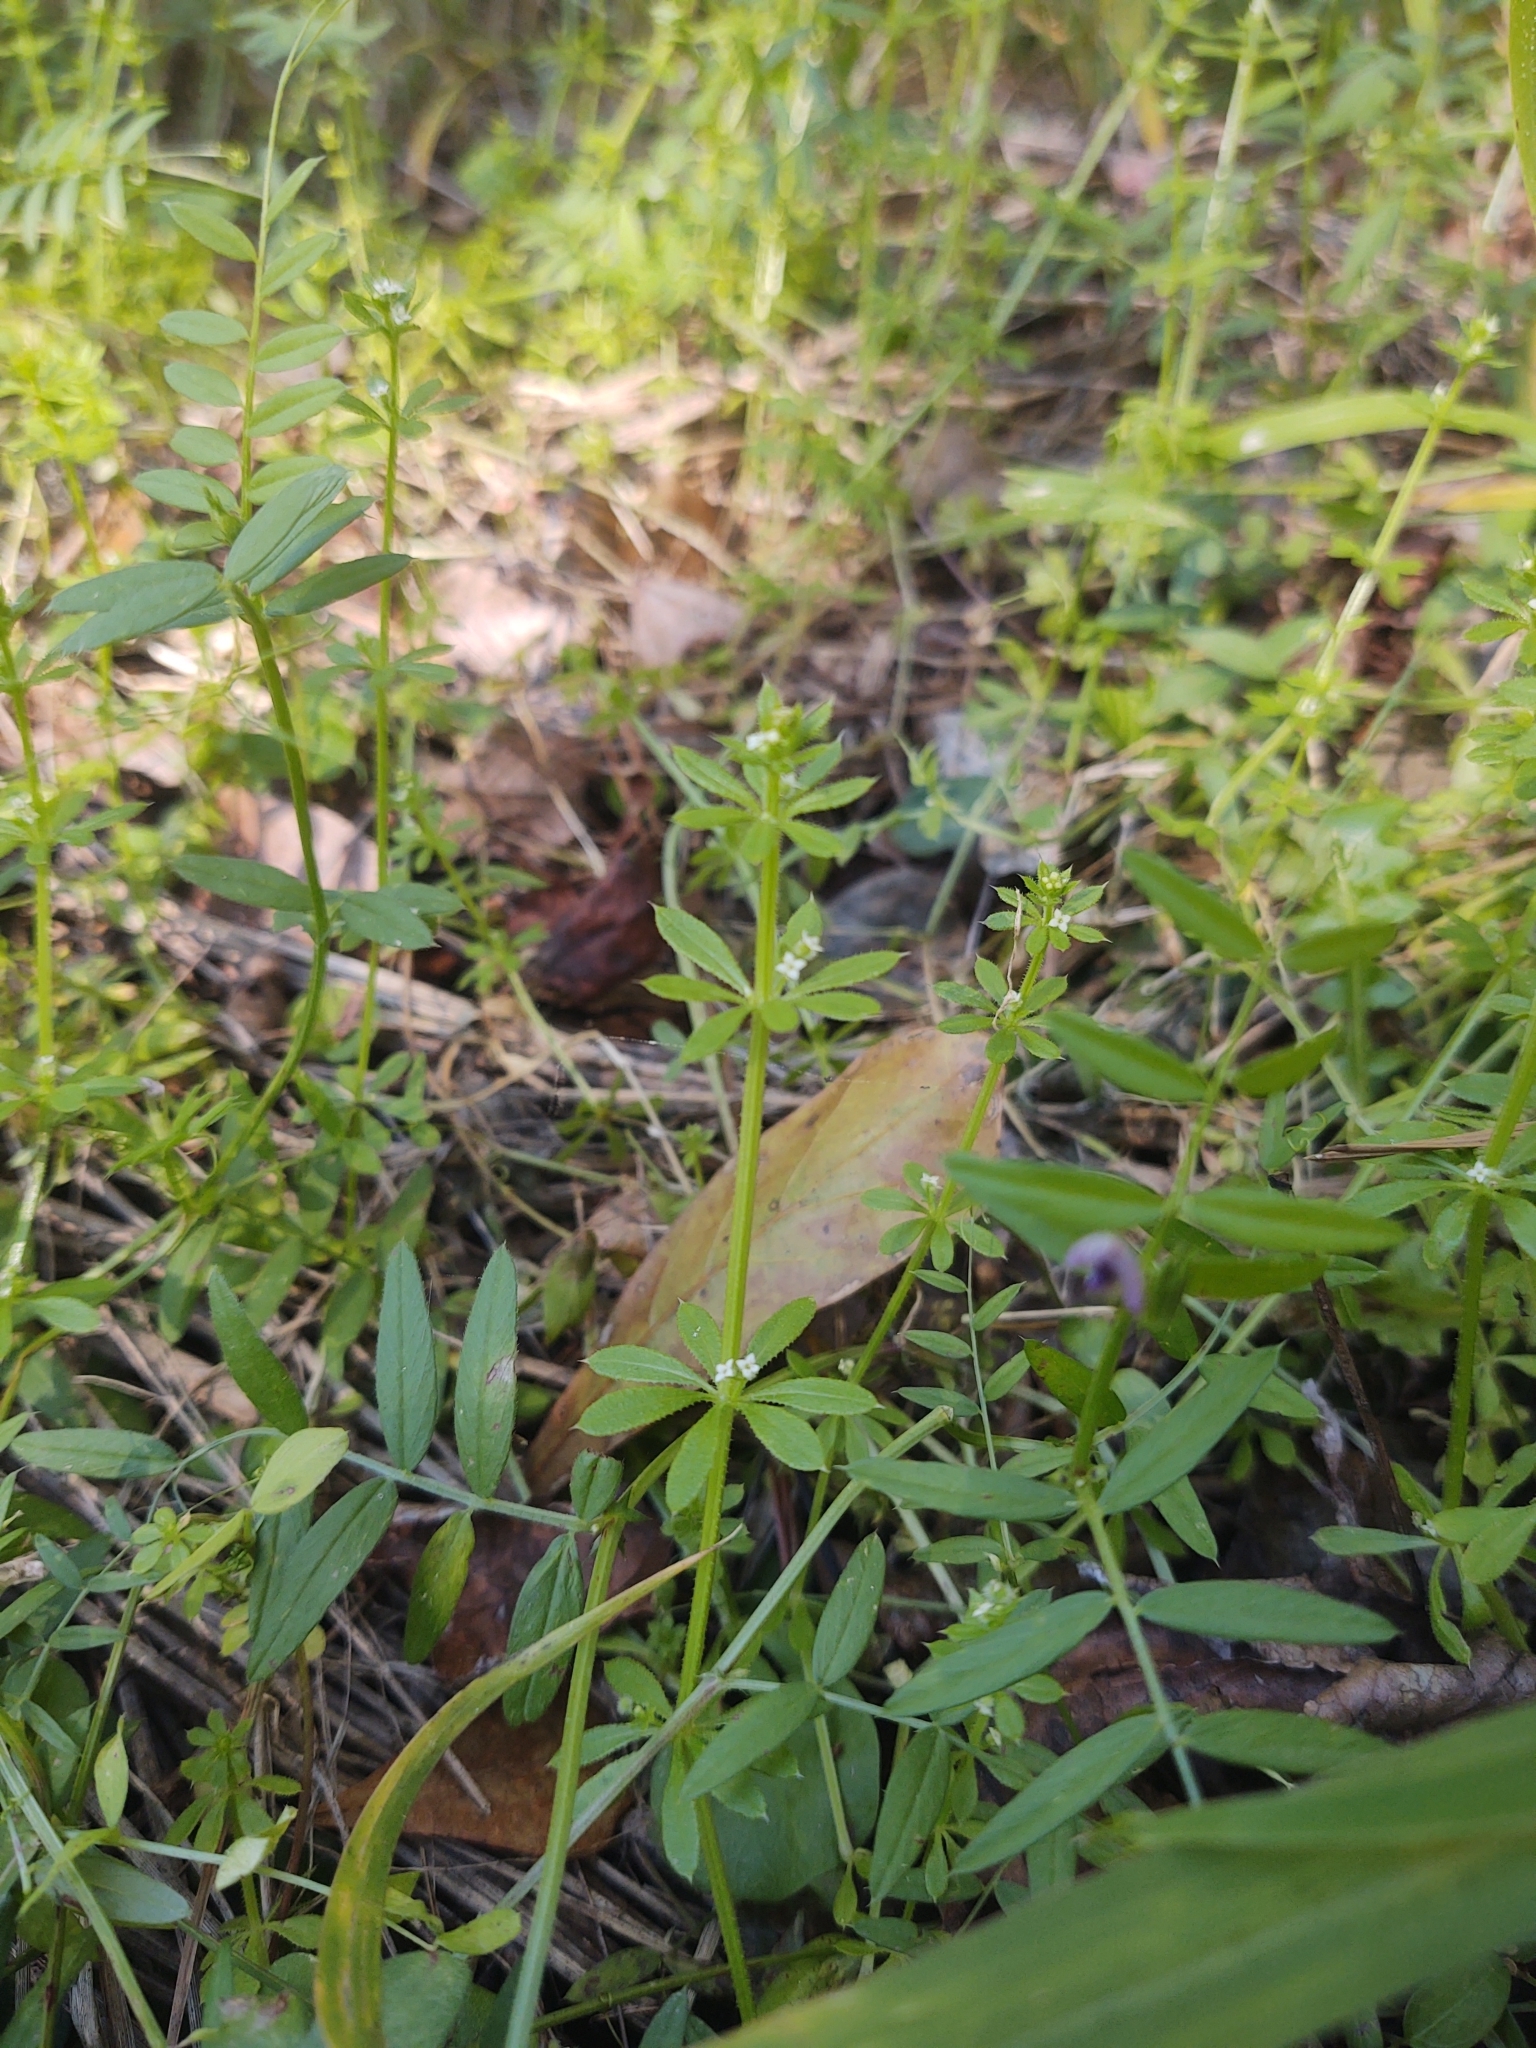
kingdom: Plantae
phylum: Tracheophyta
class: Magnoliopsida
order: Gentianales
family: Rubiaceae
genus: Galium
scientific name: Galium aparine
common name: Cleavers
